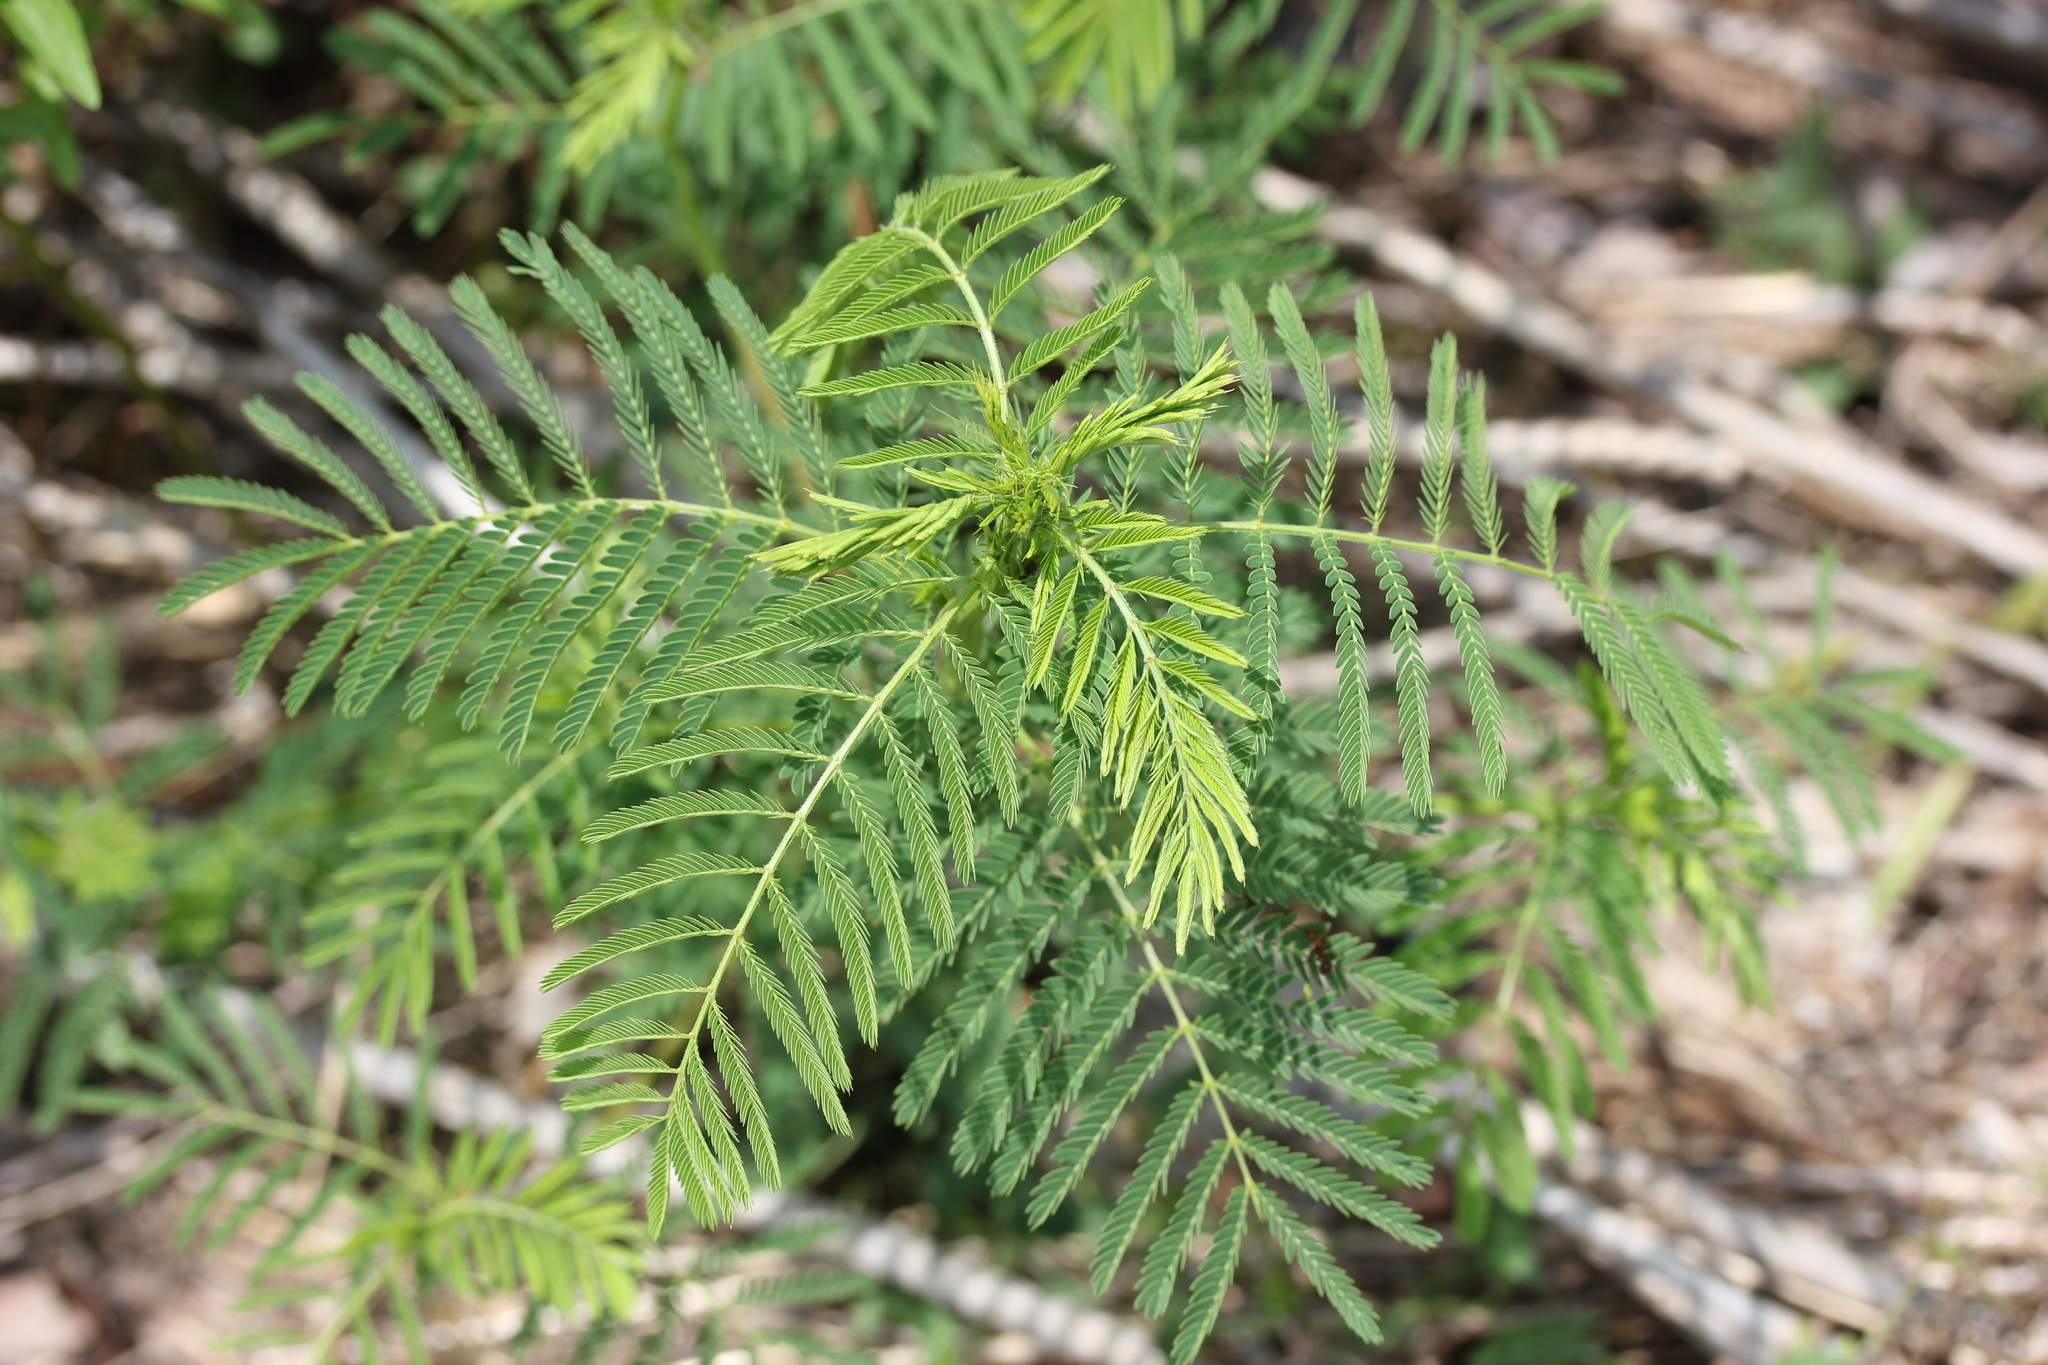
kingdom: Plantae
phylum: Tracheophyta
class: Magnoliopsida
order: Fabales
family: Fabaceae
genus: Desmanthus
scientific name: Desmanthus illinoensis
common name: Illinois bundle-flower
